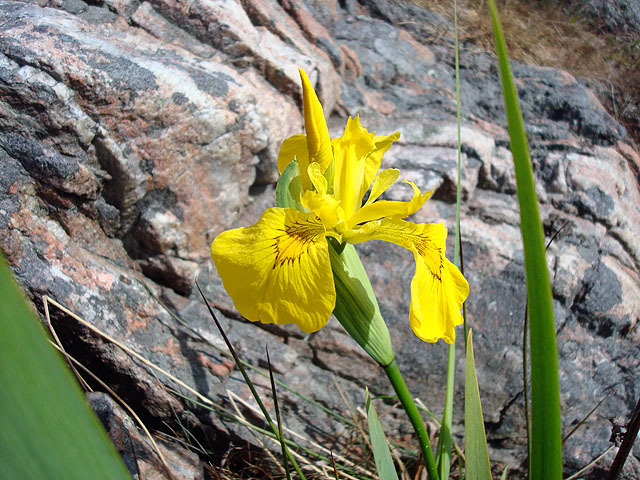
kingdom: Plantae
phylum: Tracheophyta
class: Liliopsida
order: Asparagales
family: Iridaceae
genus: Iris
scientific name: Iris pseudacorus
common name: Yellow flag
